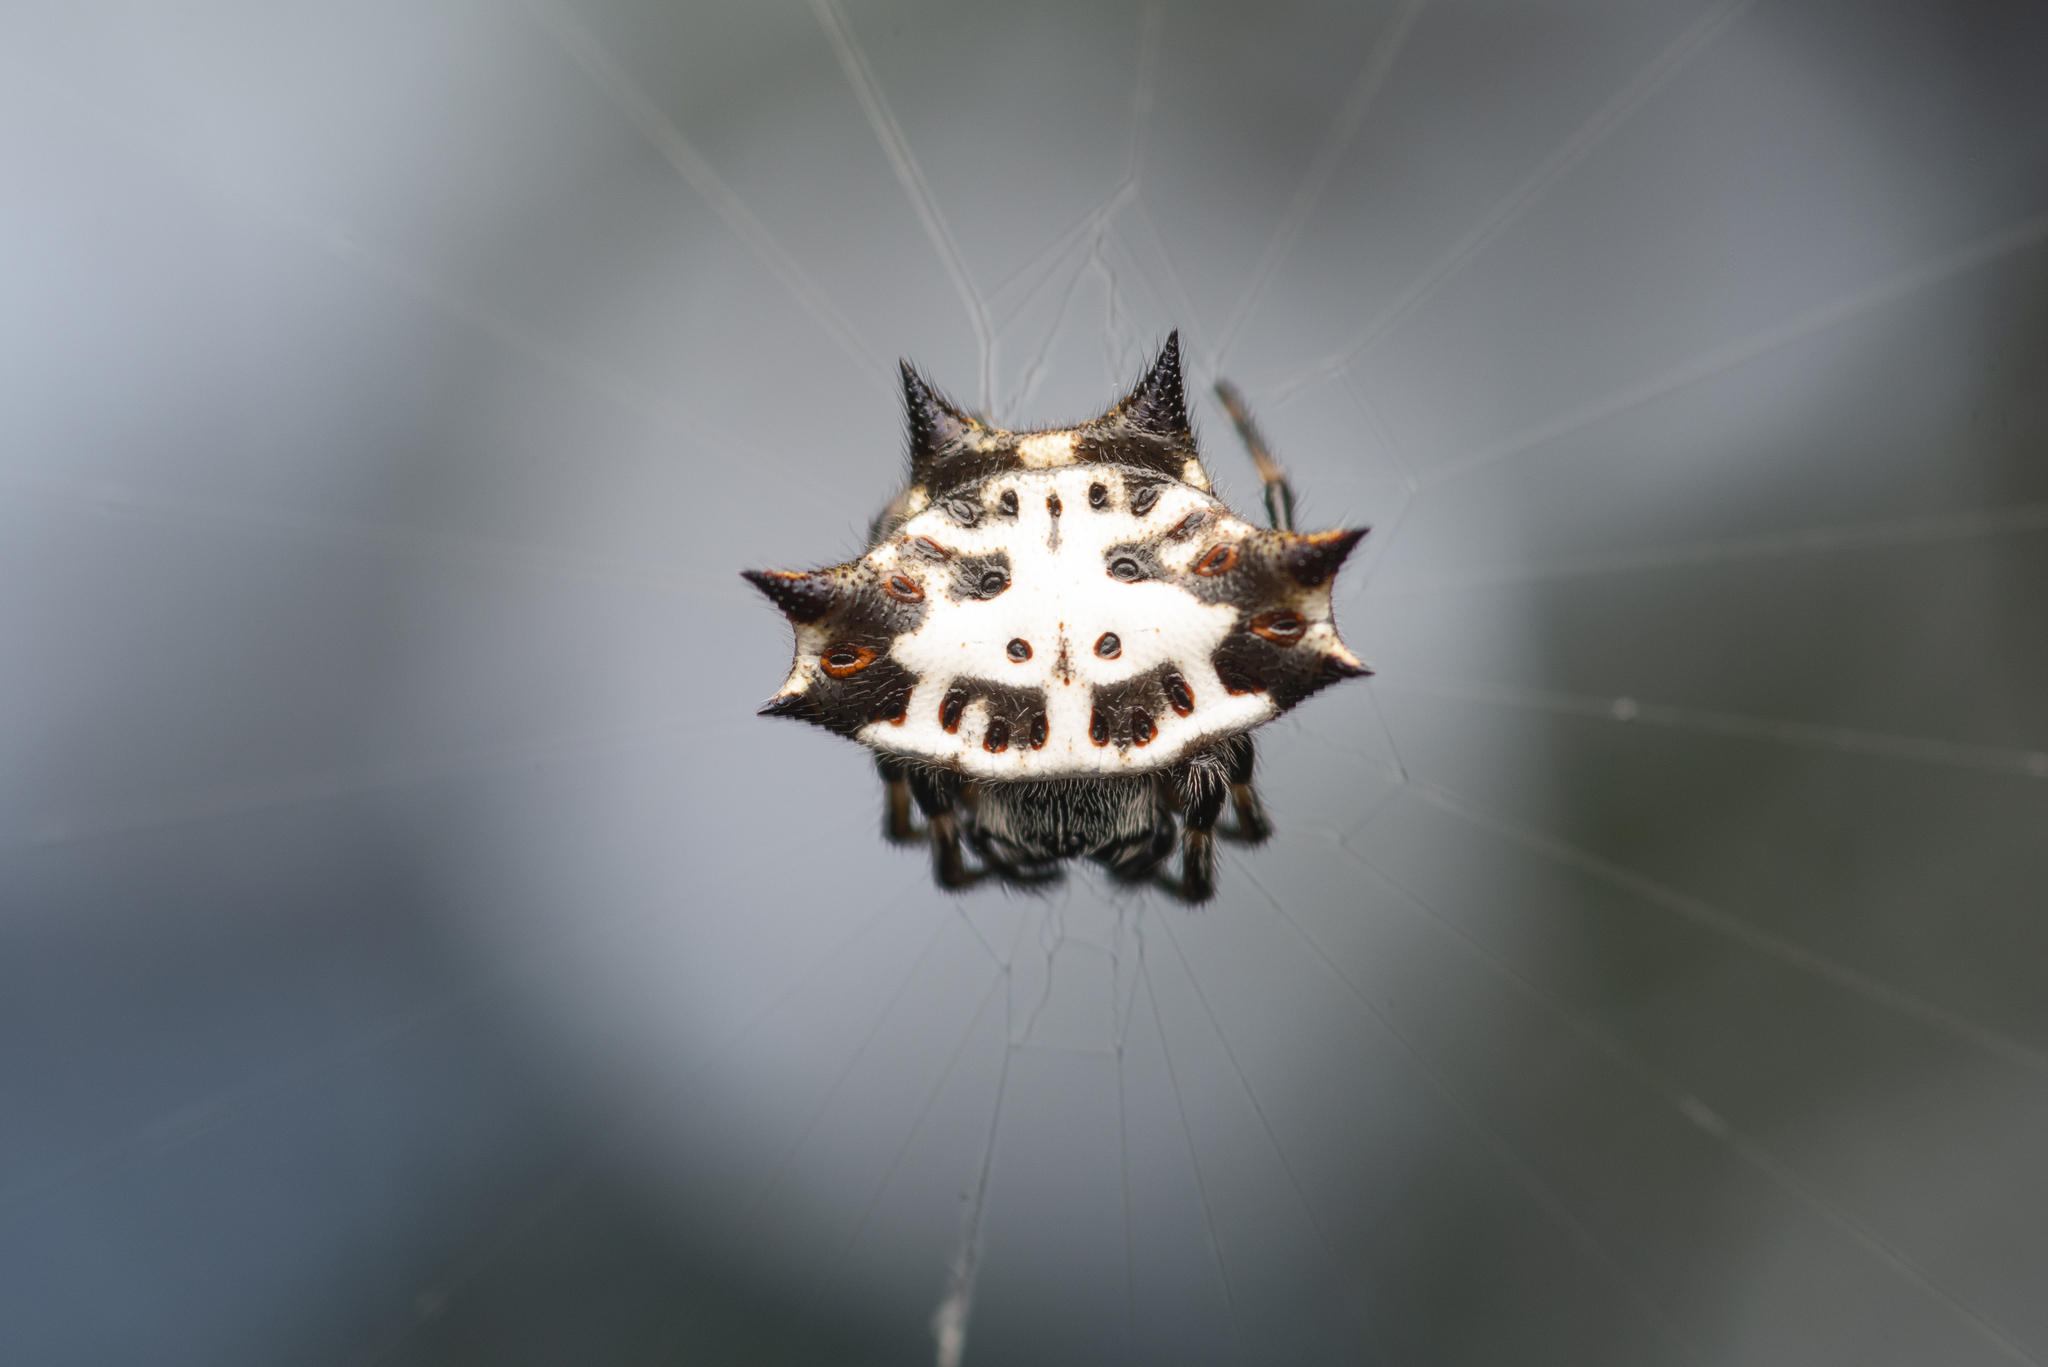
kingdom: Animalia
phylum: Arthropoda
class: Arachnida
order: Araneae
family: Araneidae
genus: Gasteracantha
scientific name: Gasteracantha kuhli
